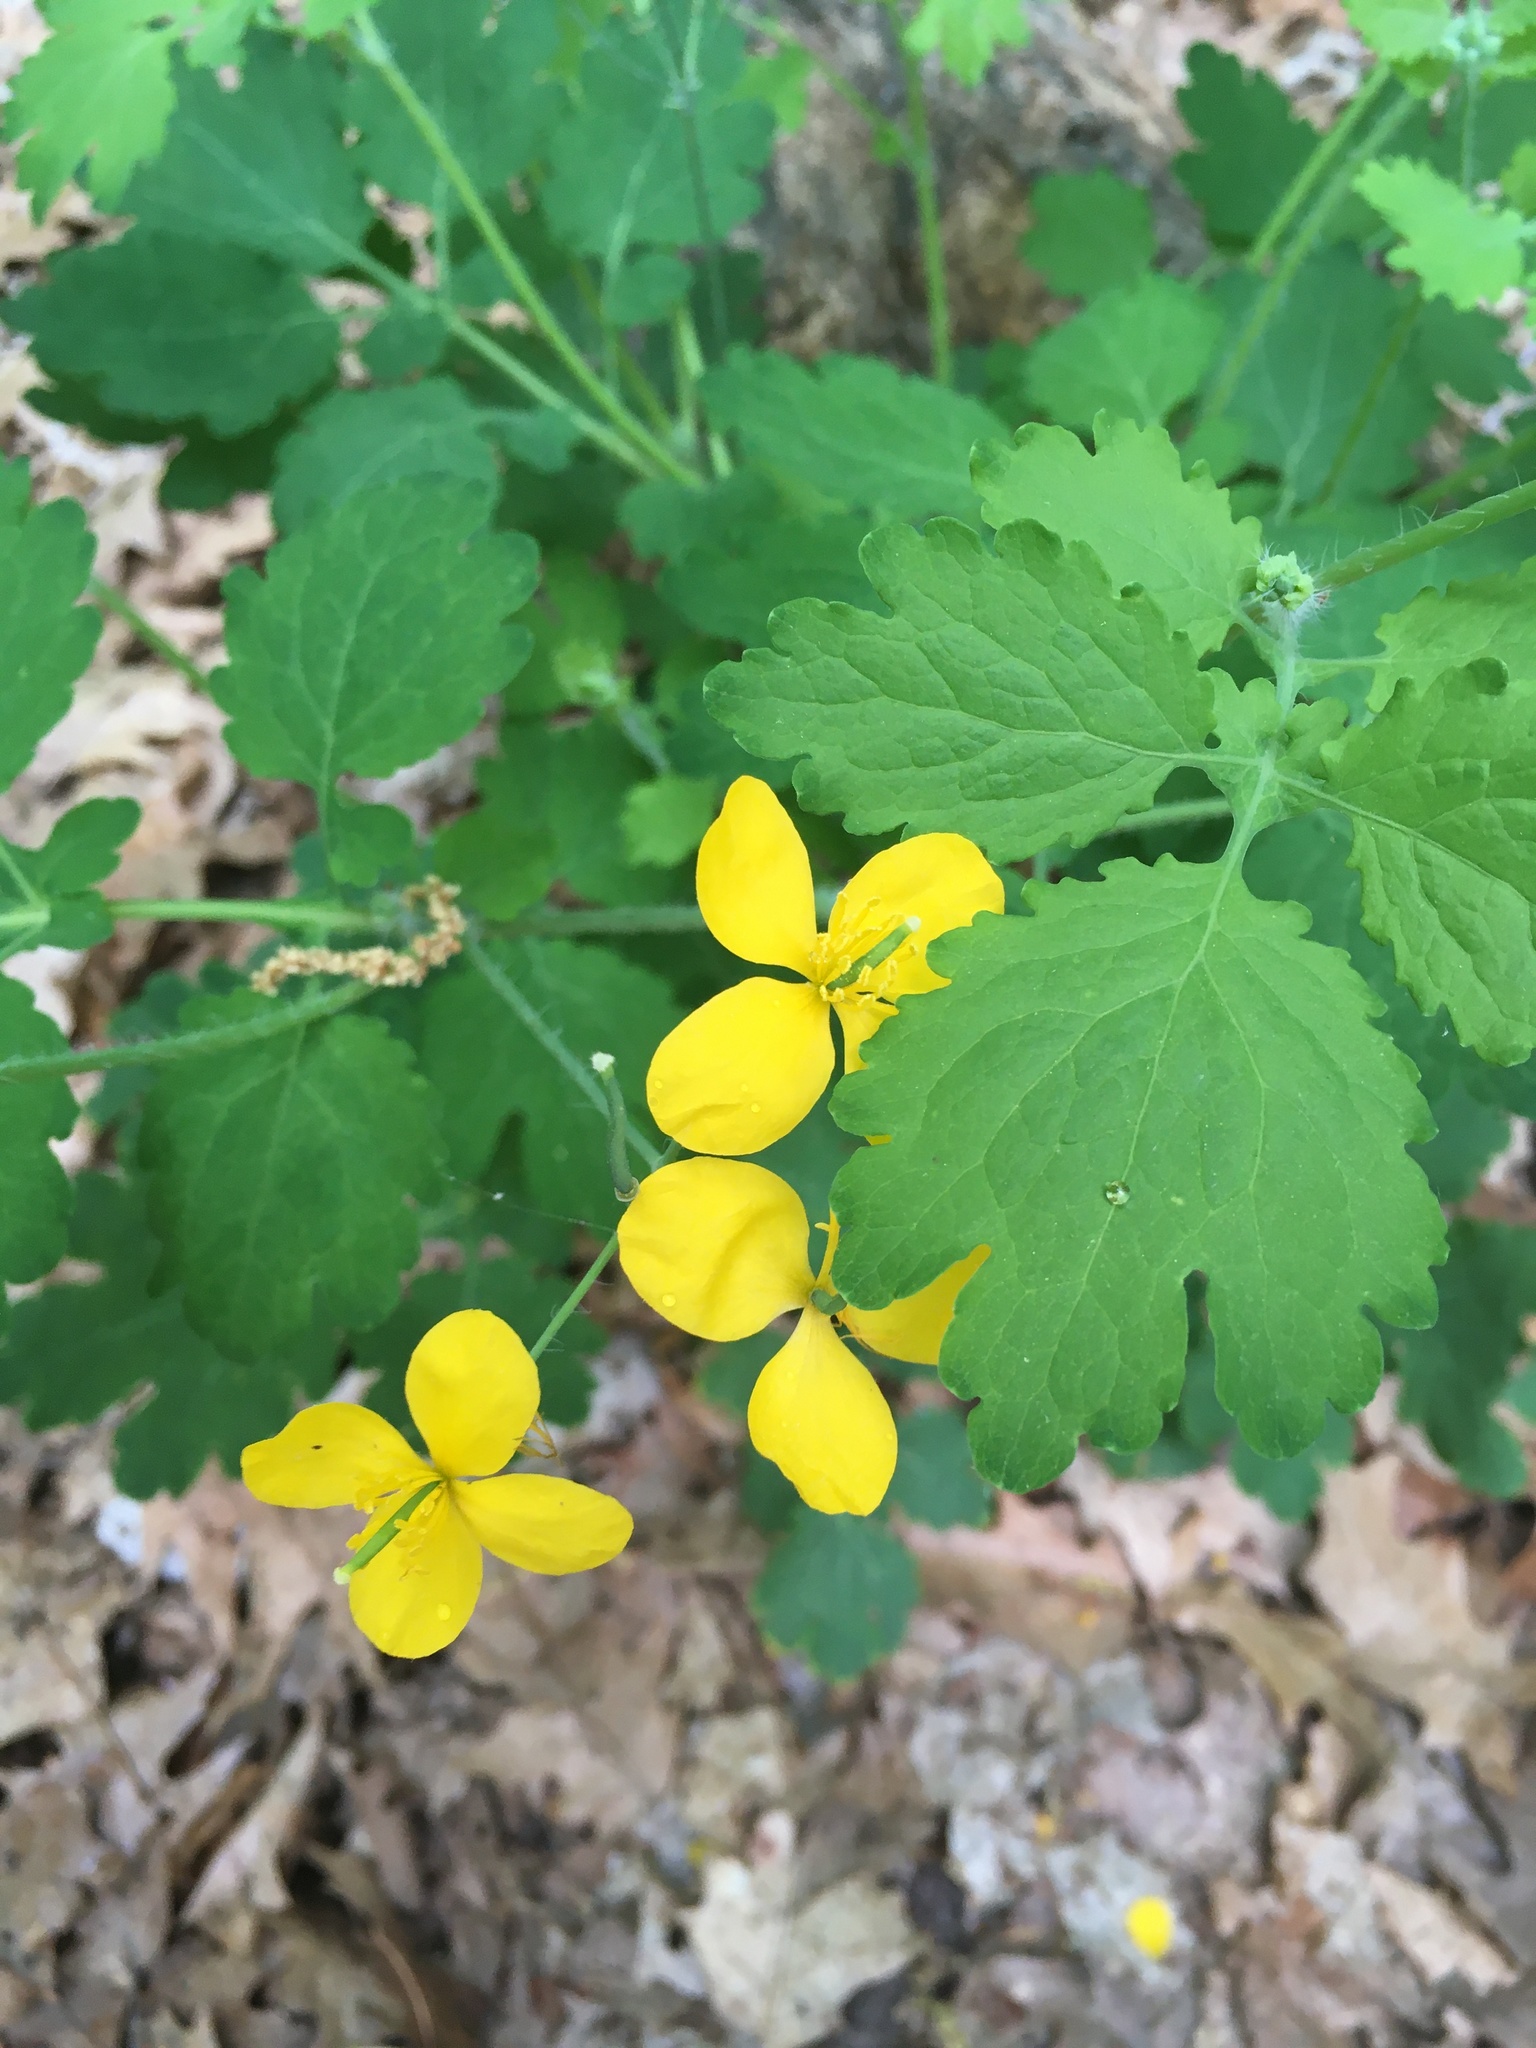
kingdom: Plantae
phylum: Tracheophyta
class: Magnoliopsida
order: Ranunculales
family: Papaveraceae
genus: Chelidonium
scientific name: Chelidonium majus
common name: Greater celandine
